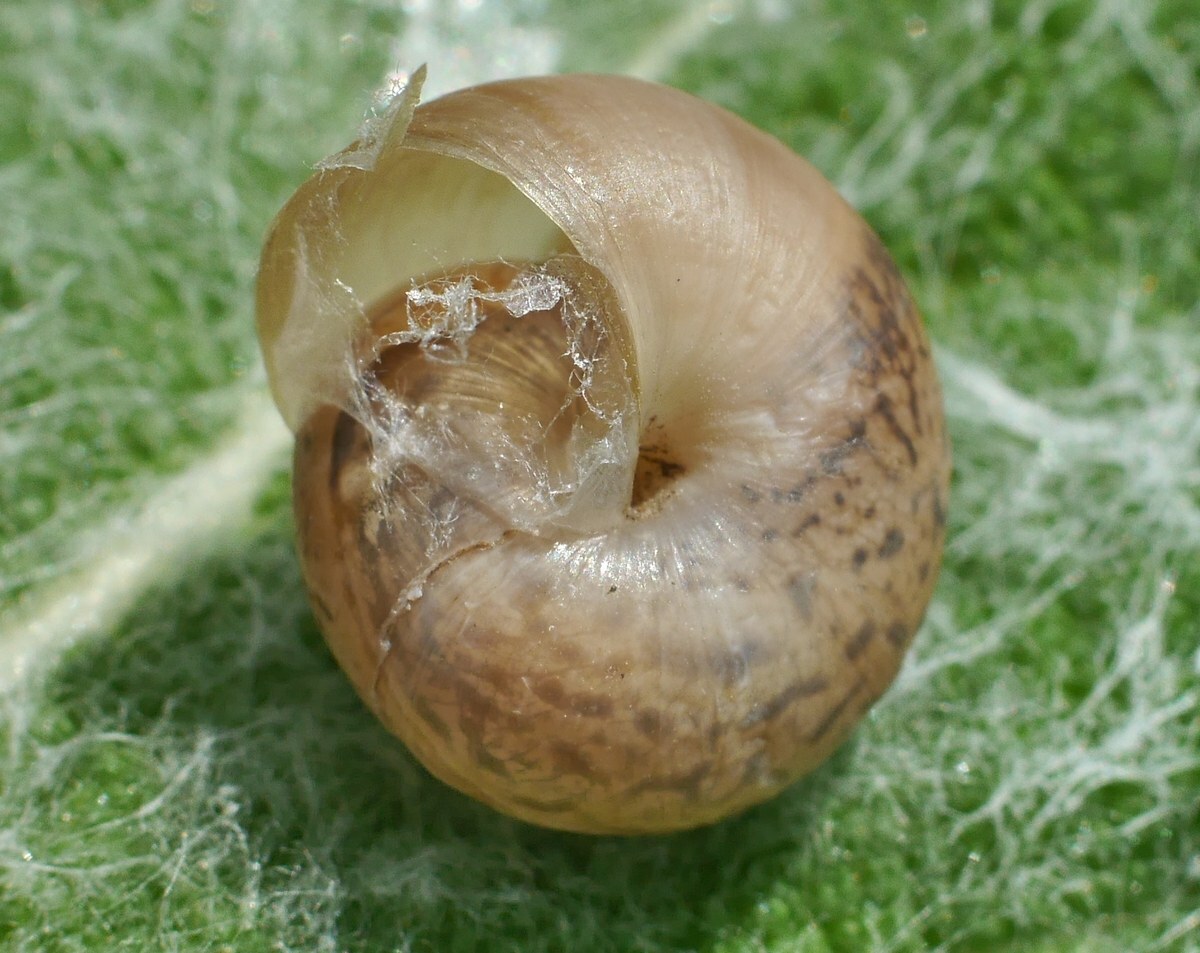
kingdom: Animalia
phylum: Mollusca
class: Gastropoda
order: Stylommatophora
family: Hygromiidae
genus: Monacha
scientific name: Monacha fruticola
